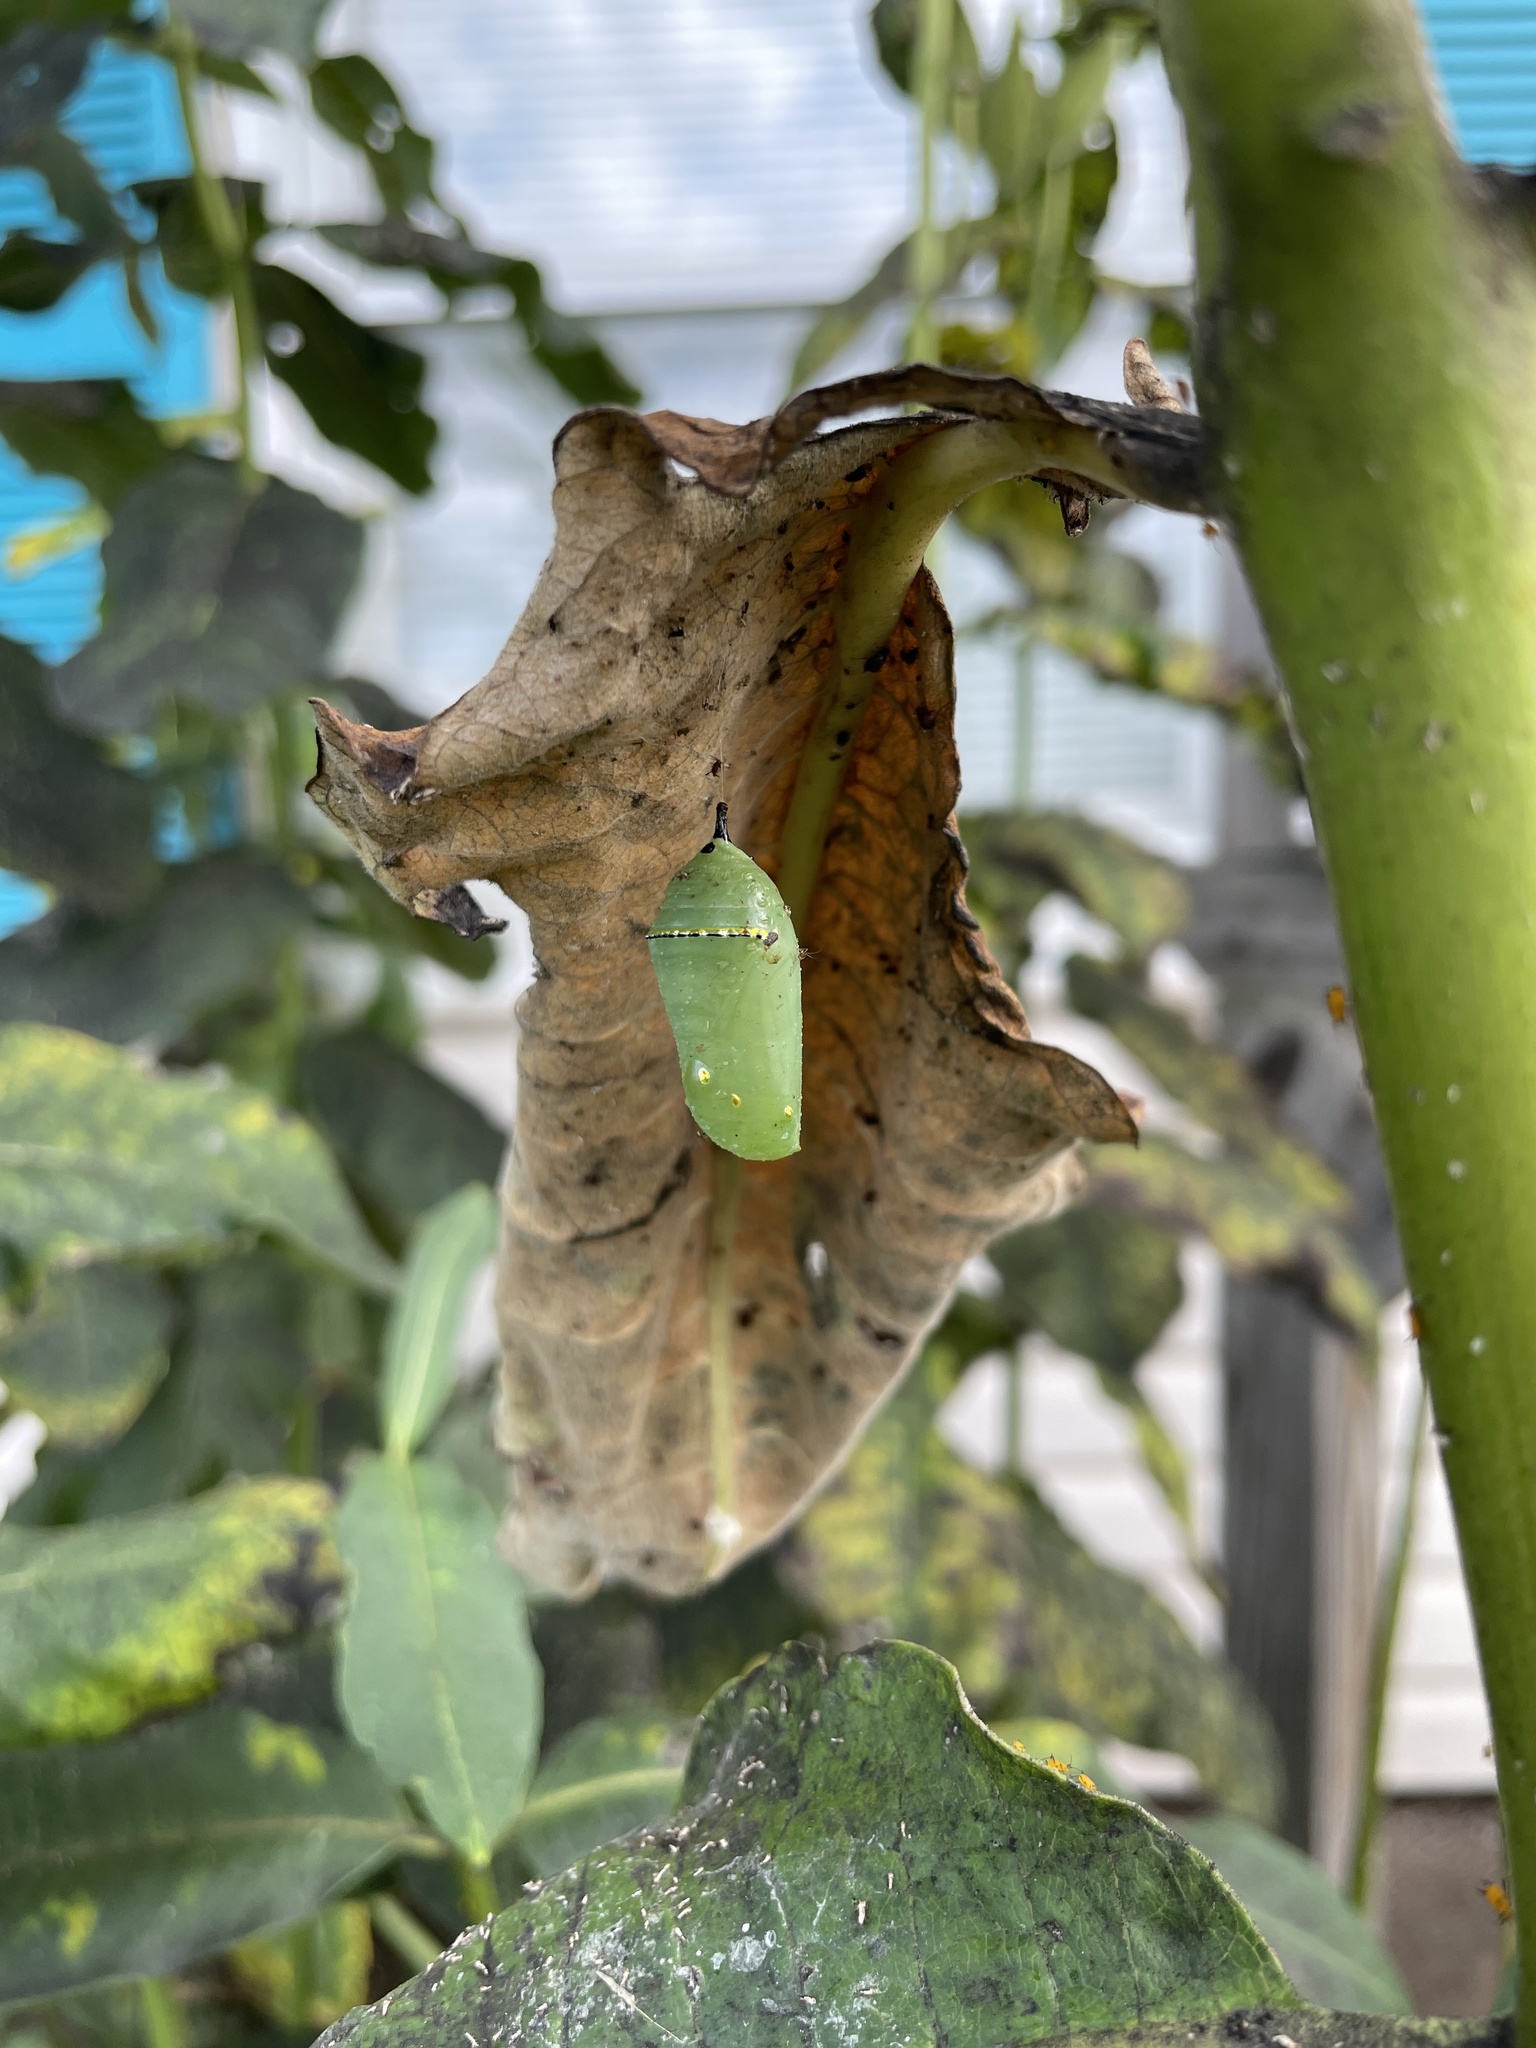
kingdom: Animalia
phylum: Arthropoda
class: Insecta
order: Lepidoptera
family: Nymphalidae
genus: Danaus
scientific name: Danaus plexippus
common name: Monarch
